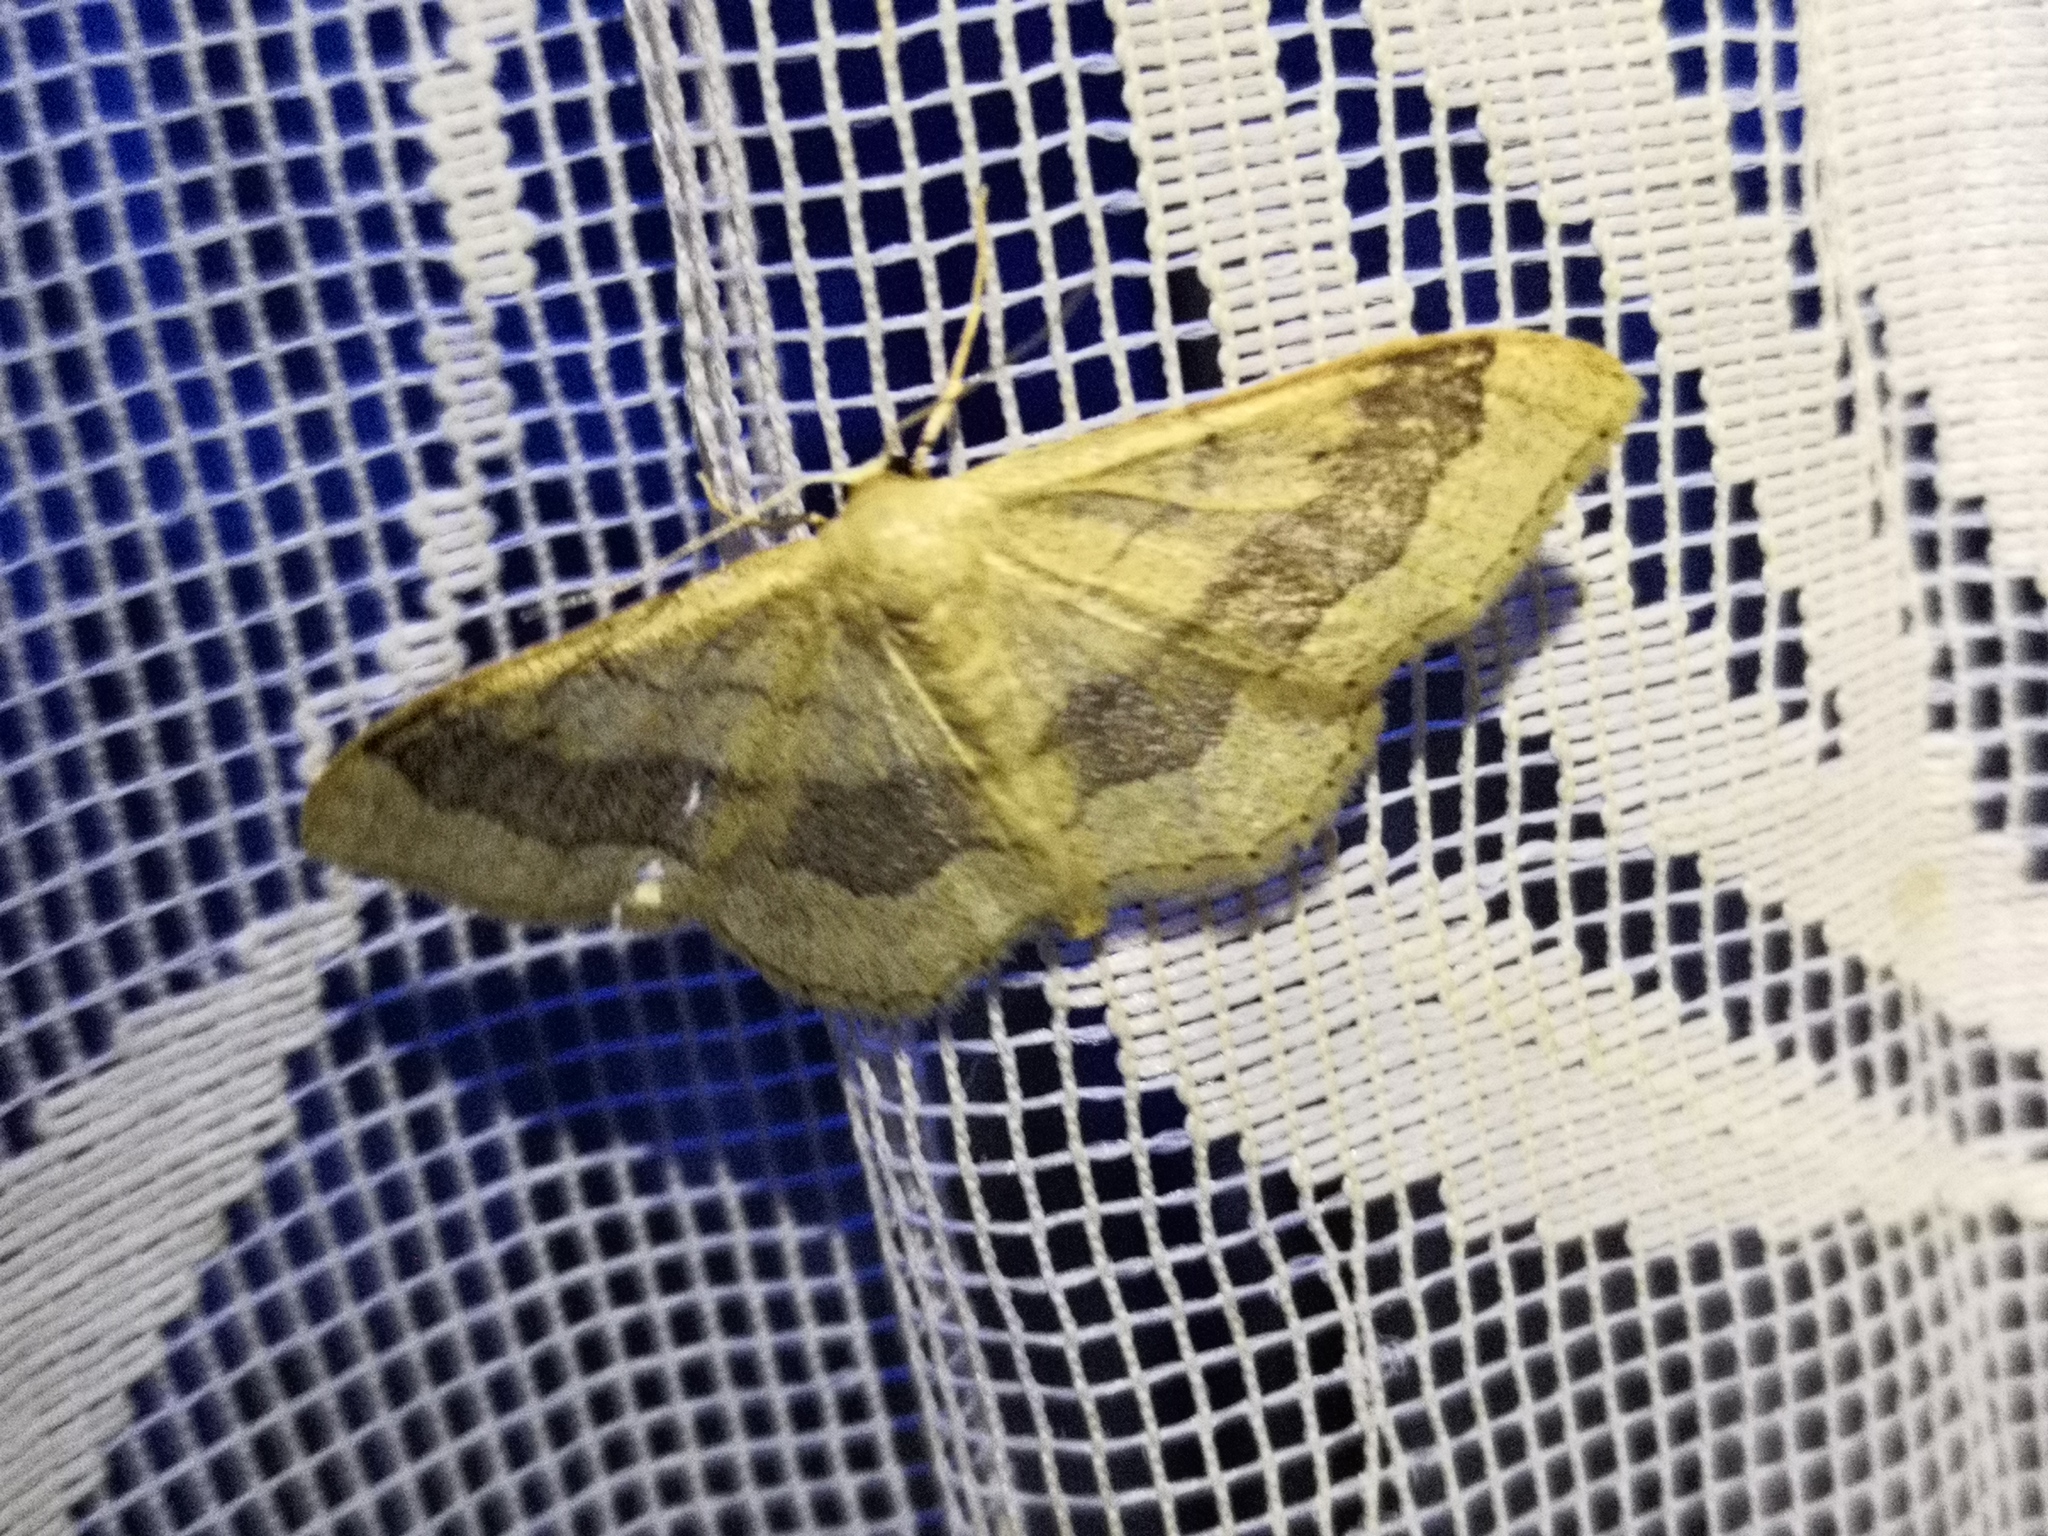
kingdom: Animalia
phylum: Arthropoda
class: Insecta
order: Lepidoptera
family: Geometridae
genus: Idaea
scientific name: Idaea aversata
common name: Riband wave
